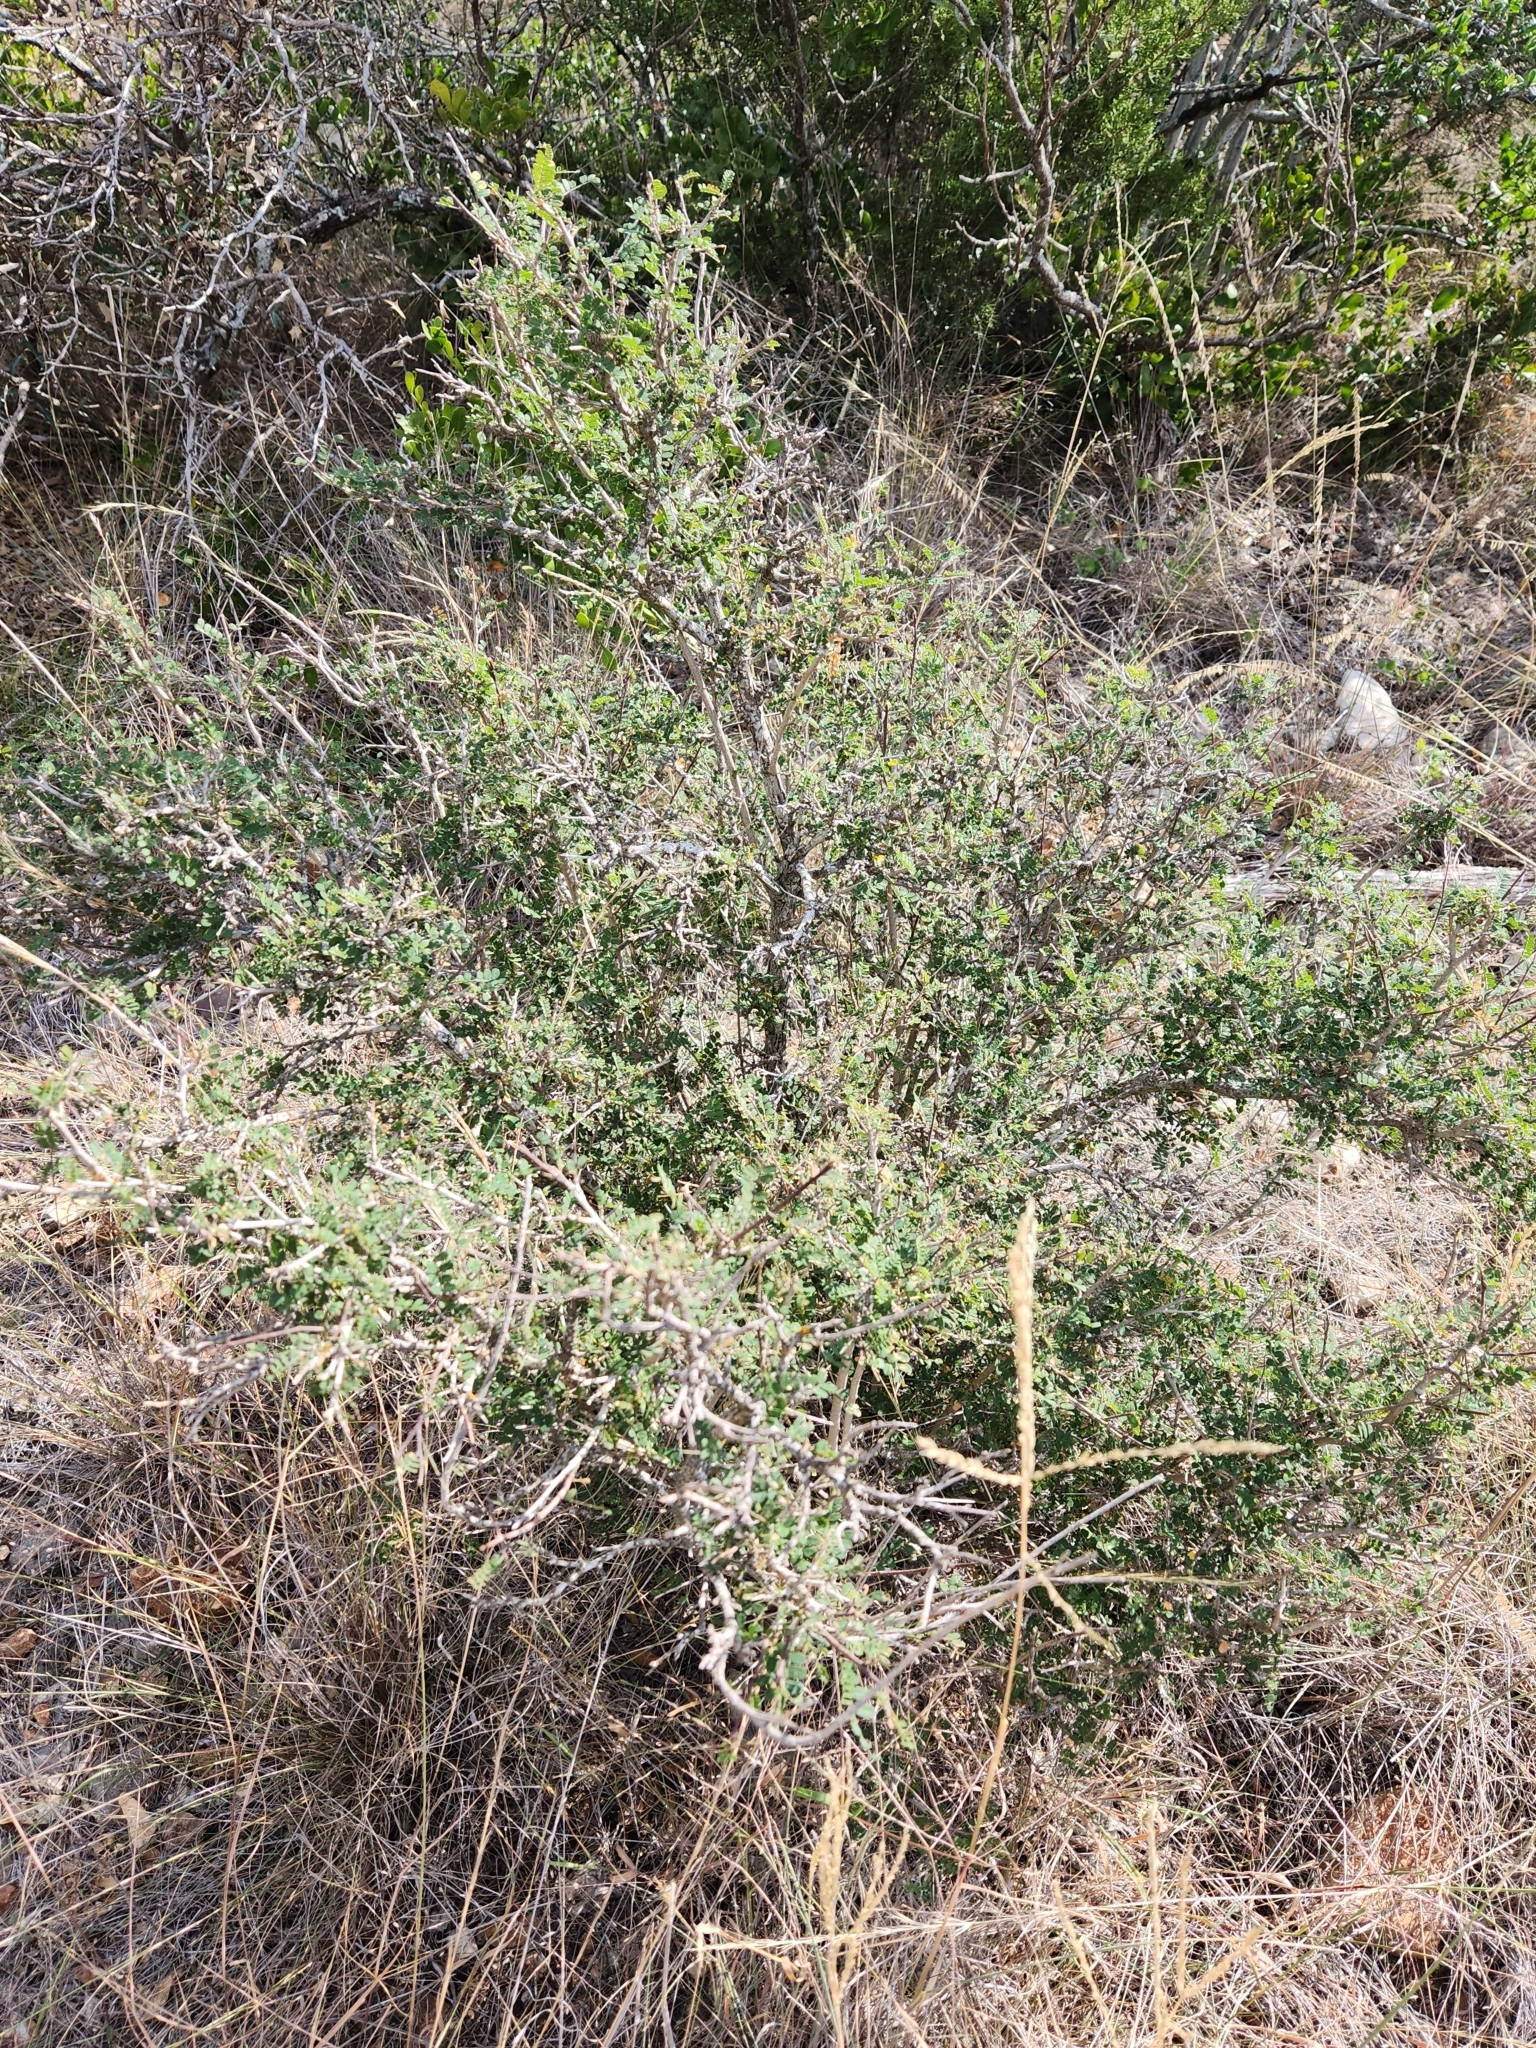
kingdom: Plantae
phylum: Tracheophyta
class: Magnoliopsida
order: Fabales
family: Fabaceae
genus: Eysenhardtia
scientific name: Eysenhardtia texana
